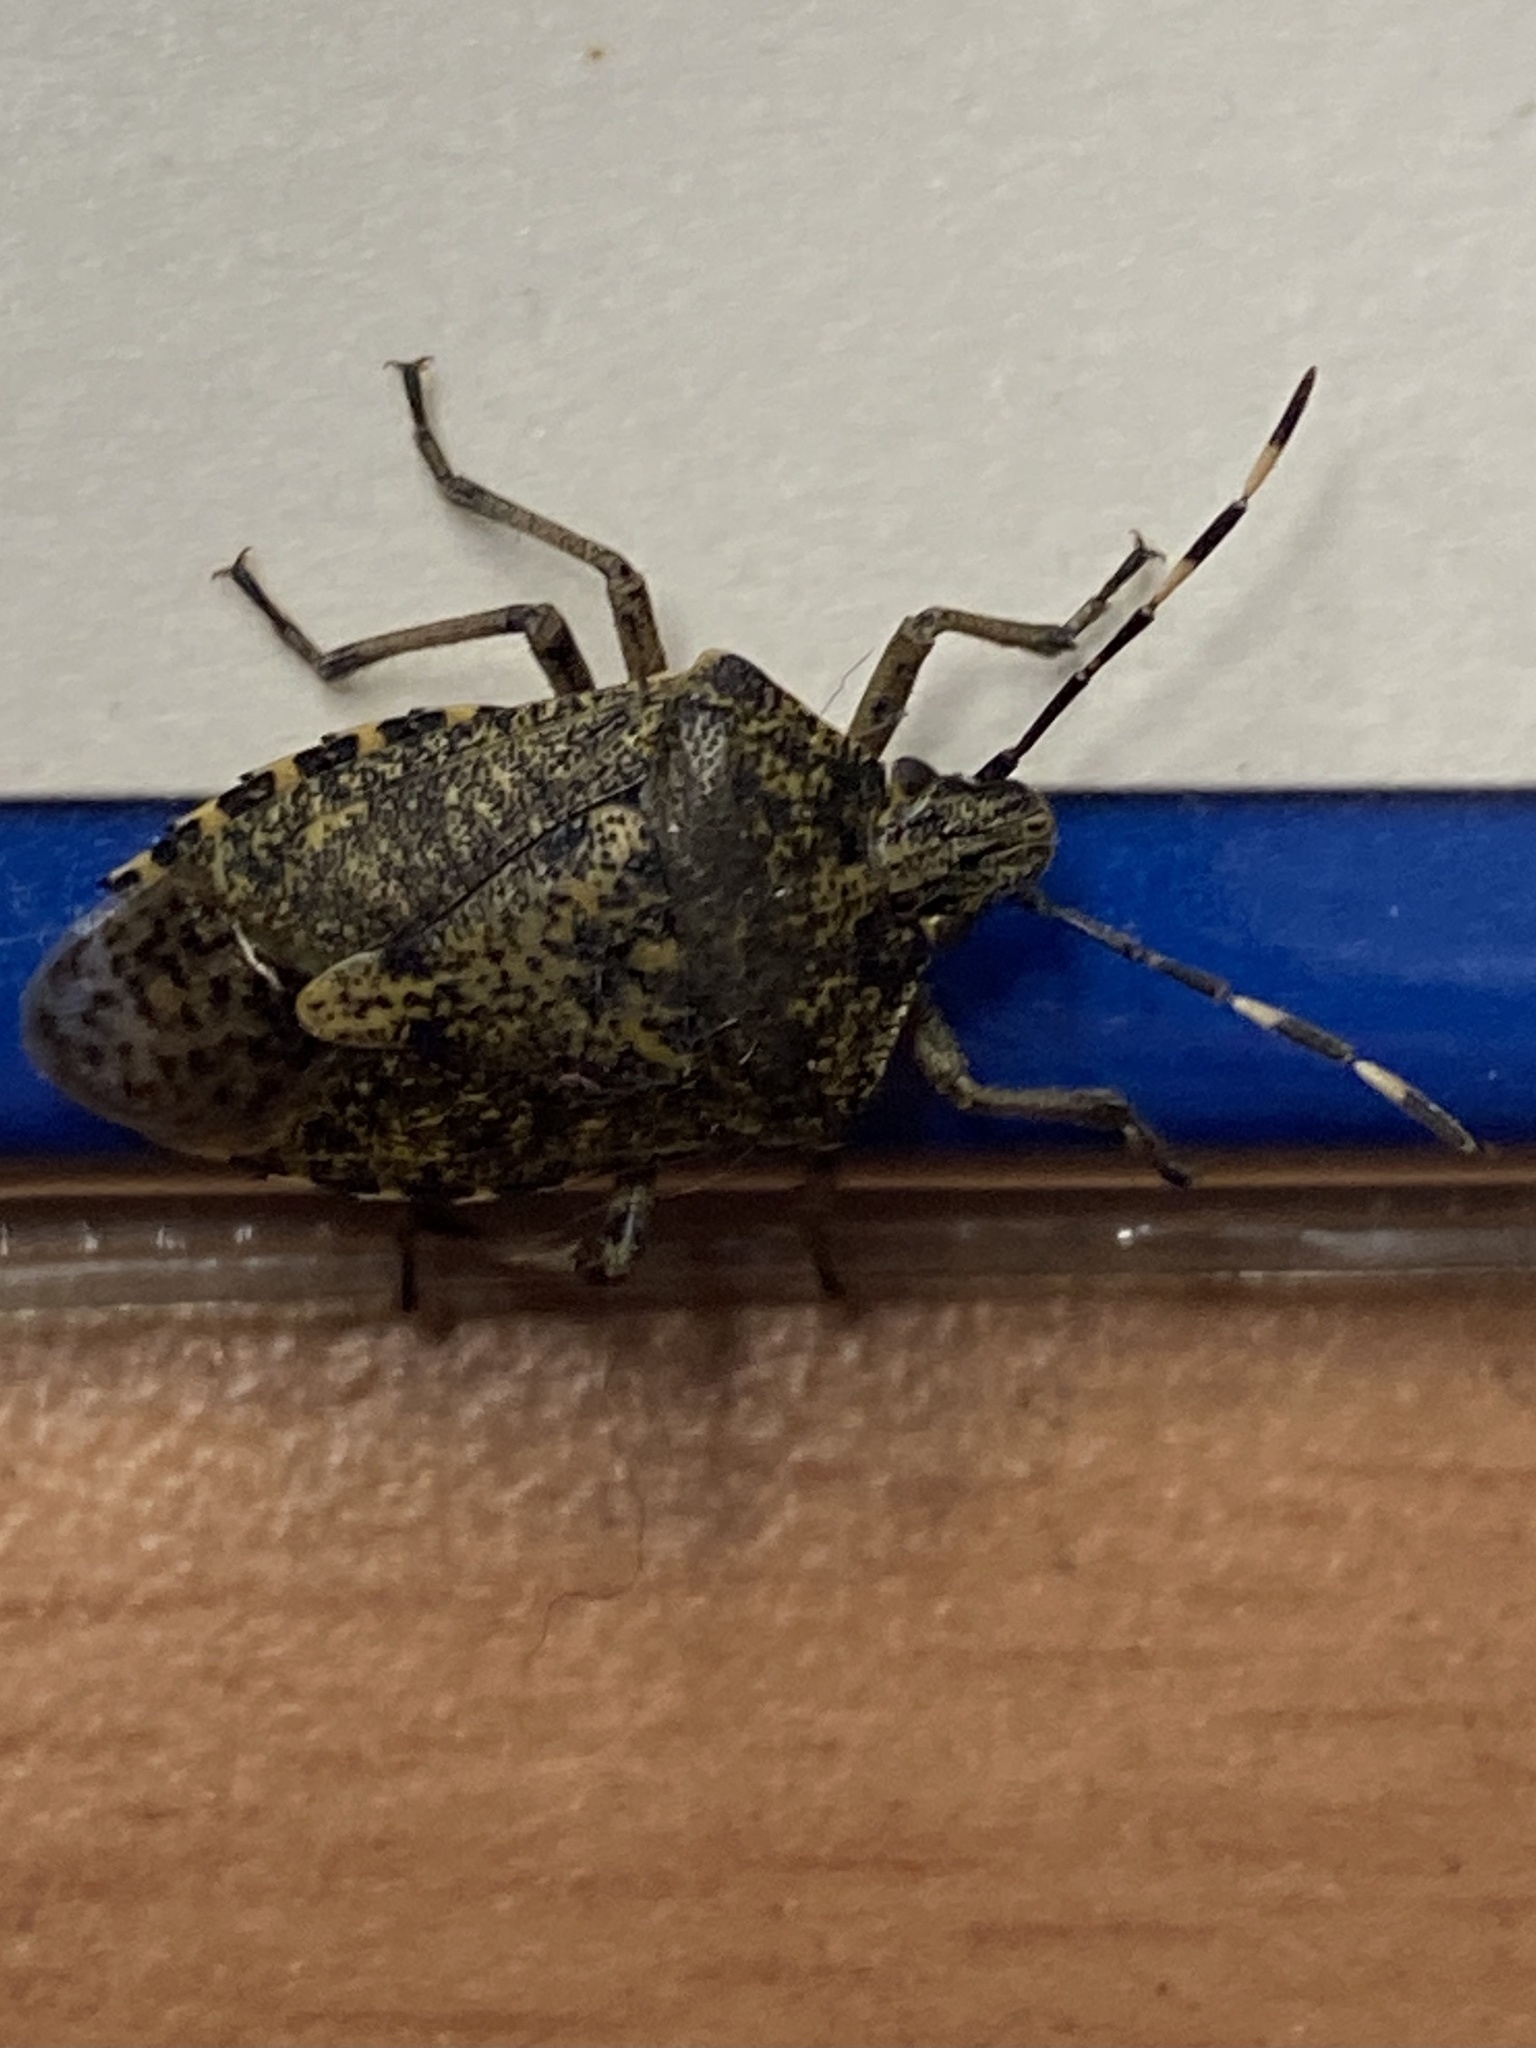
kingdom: Animalia
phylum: Arthropoda
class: Insecta
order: Hemiptera
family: Pentatomidae
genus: Rhaphigaster
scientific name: Rhaphigaster nebulosa
